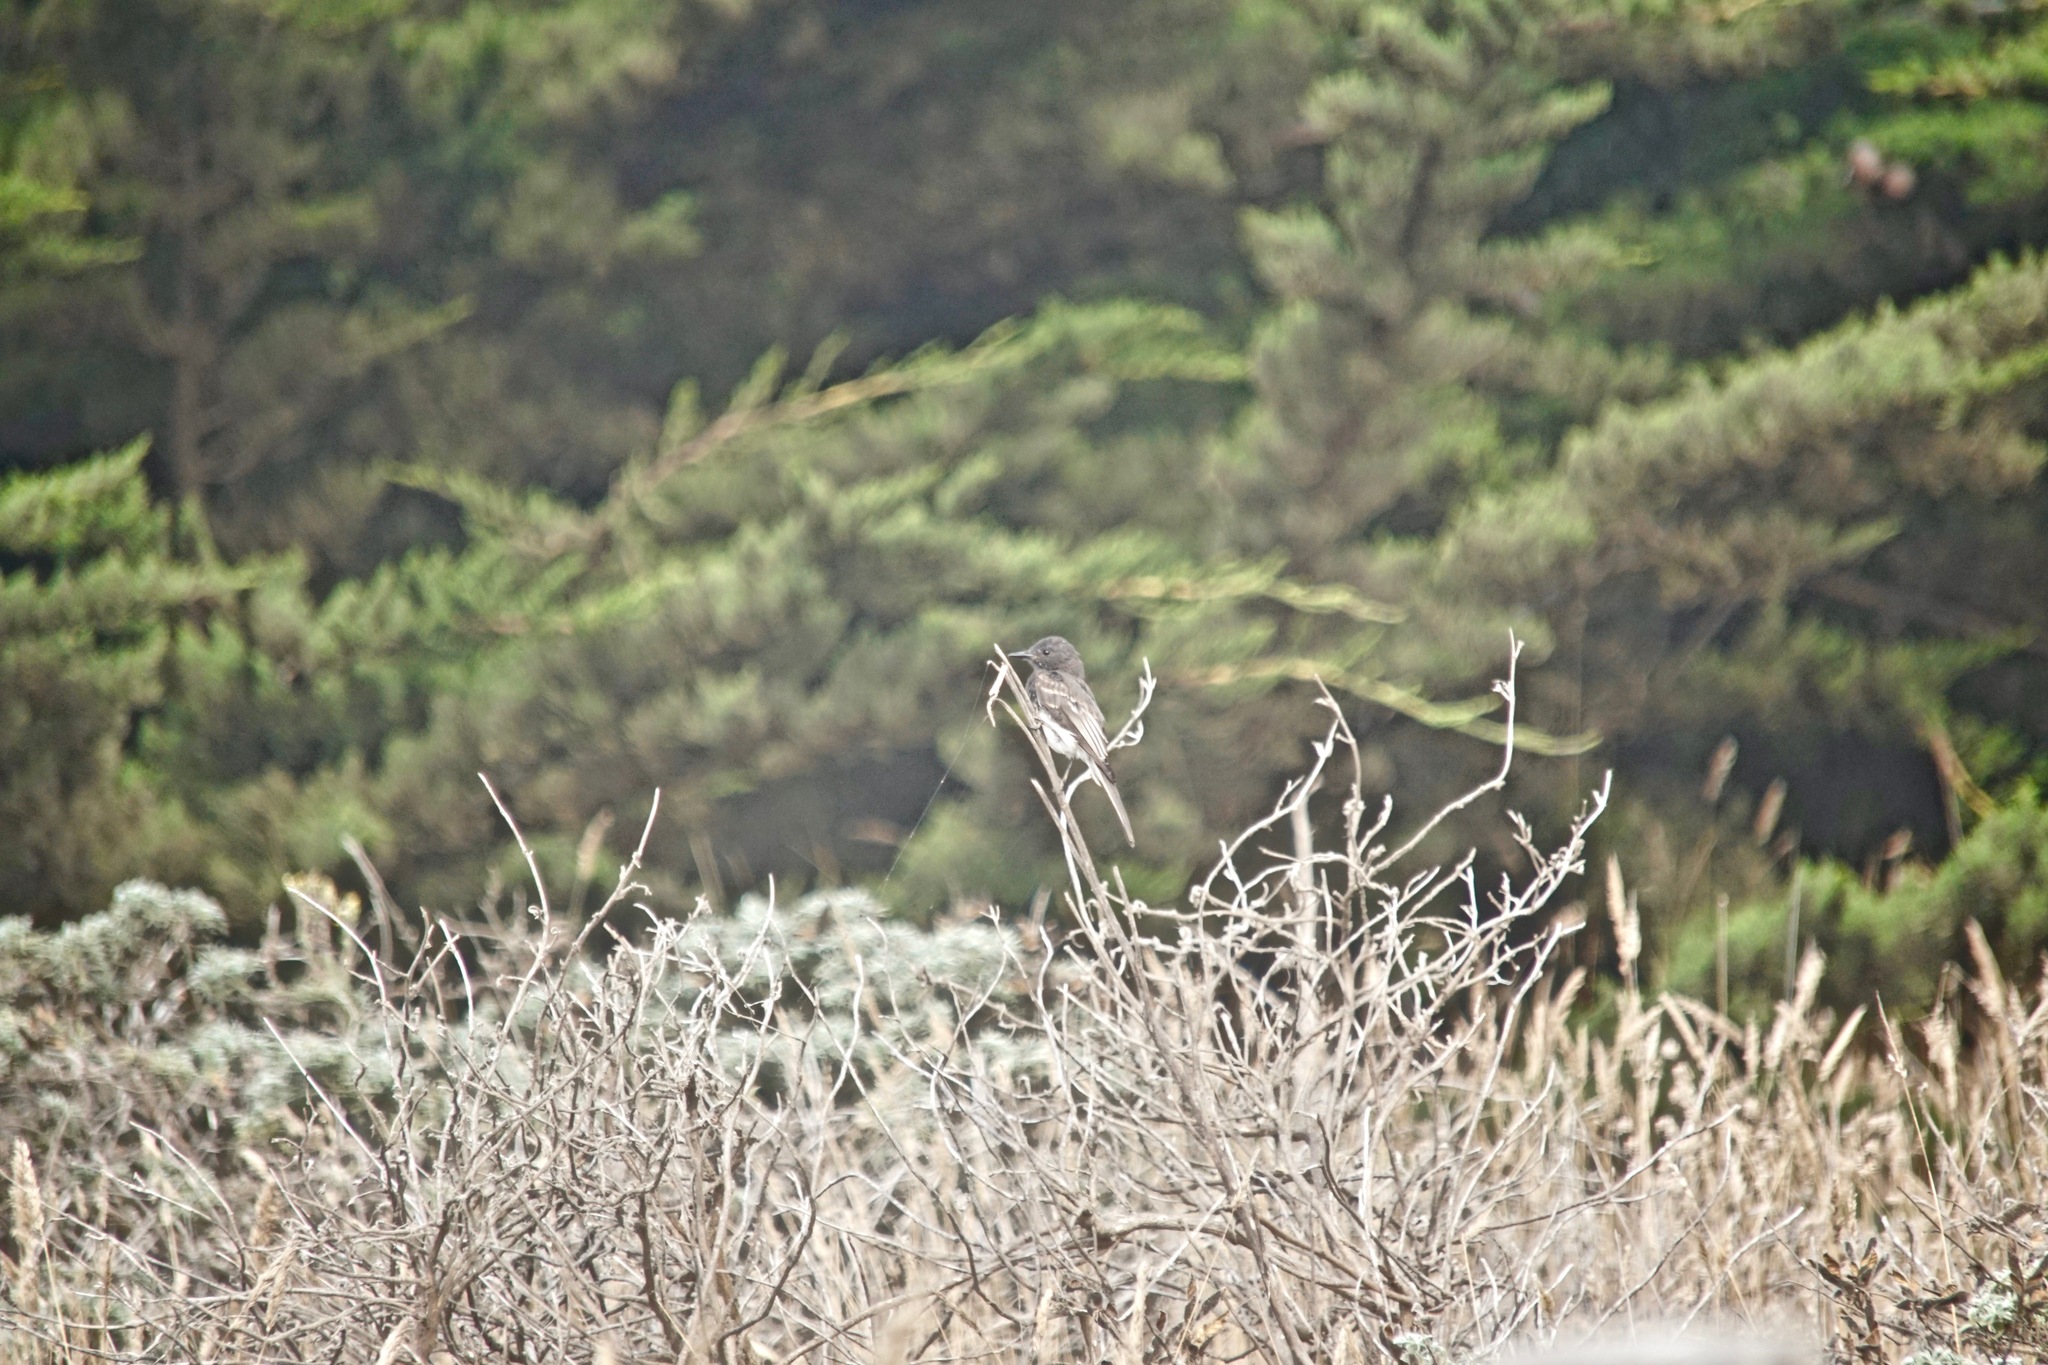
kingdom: Animalia
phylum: Chordata
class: Aves
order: Passeriformes
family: Tyrannidae
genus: Sayornis
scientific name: Sayornis nigricans
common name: Black phoebe
